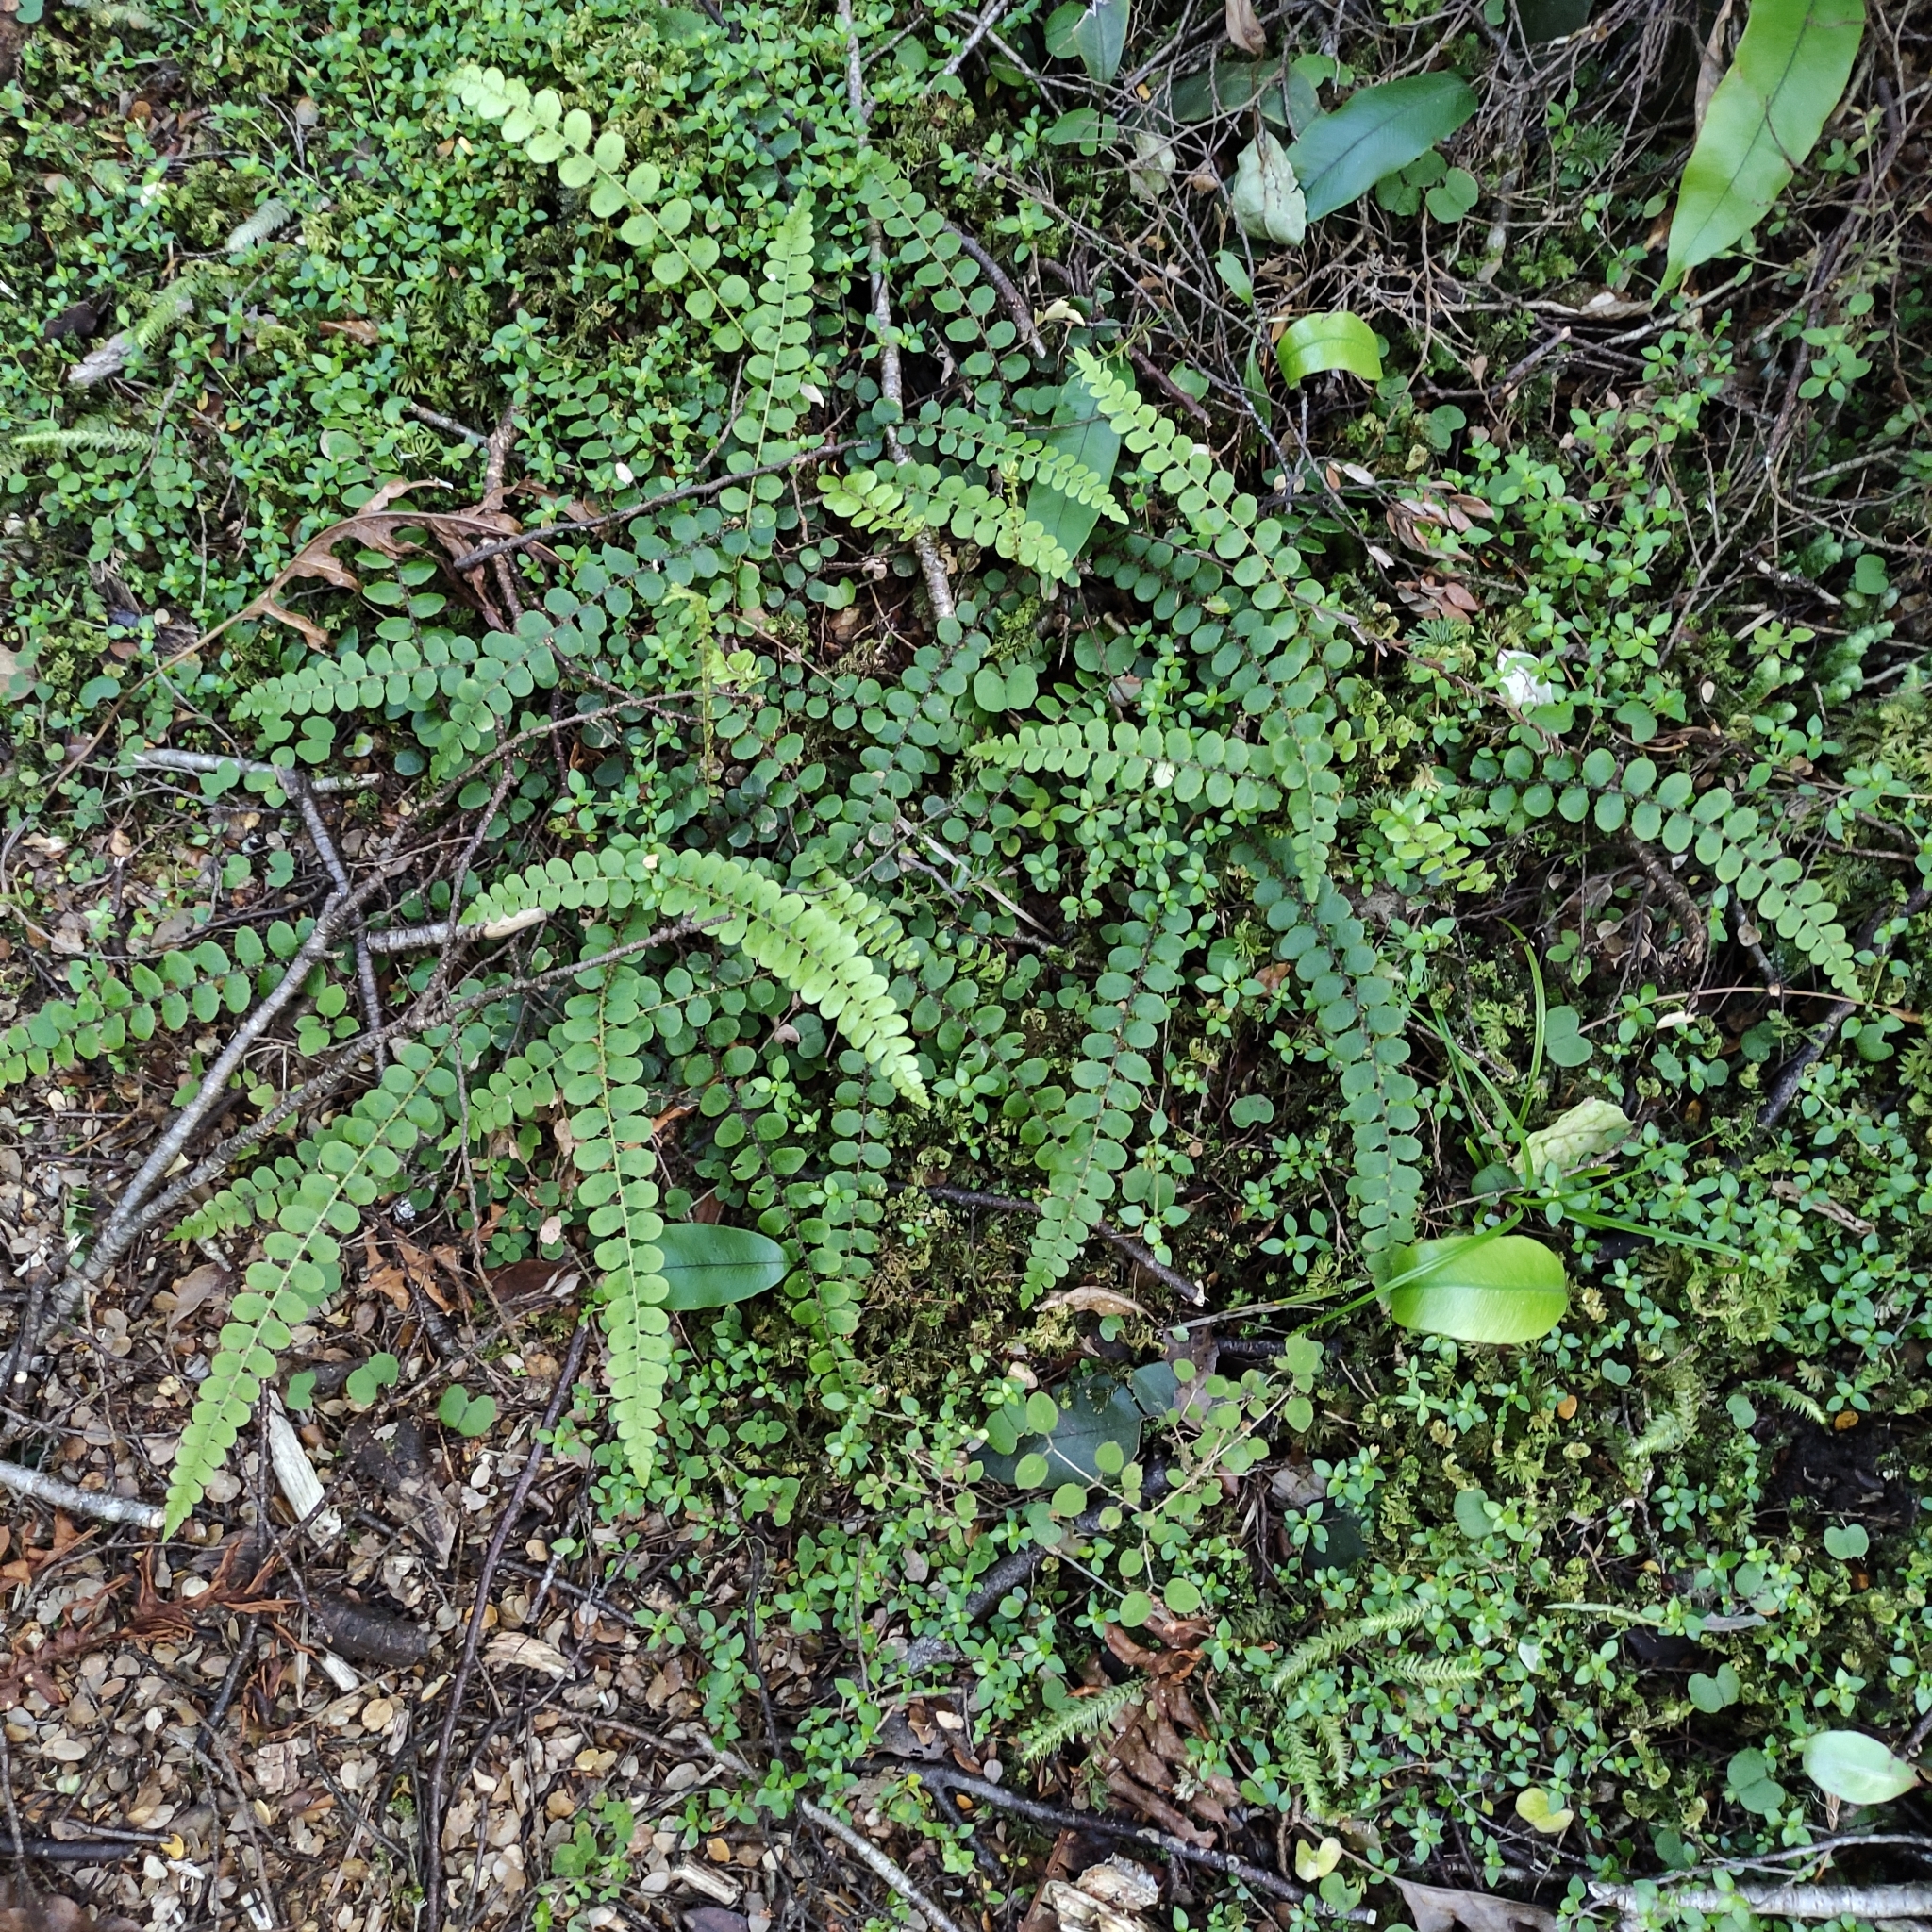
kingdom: Plantae
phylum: Tracheophyta
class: Polypodiopsida
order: Polypodiales
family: Blechnaceae
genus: Cranfillia
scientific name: Cranfillia fluviatilis
